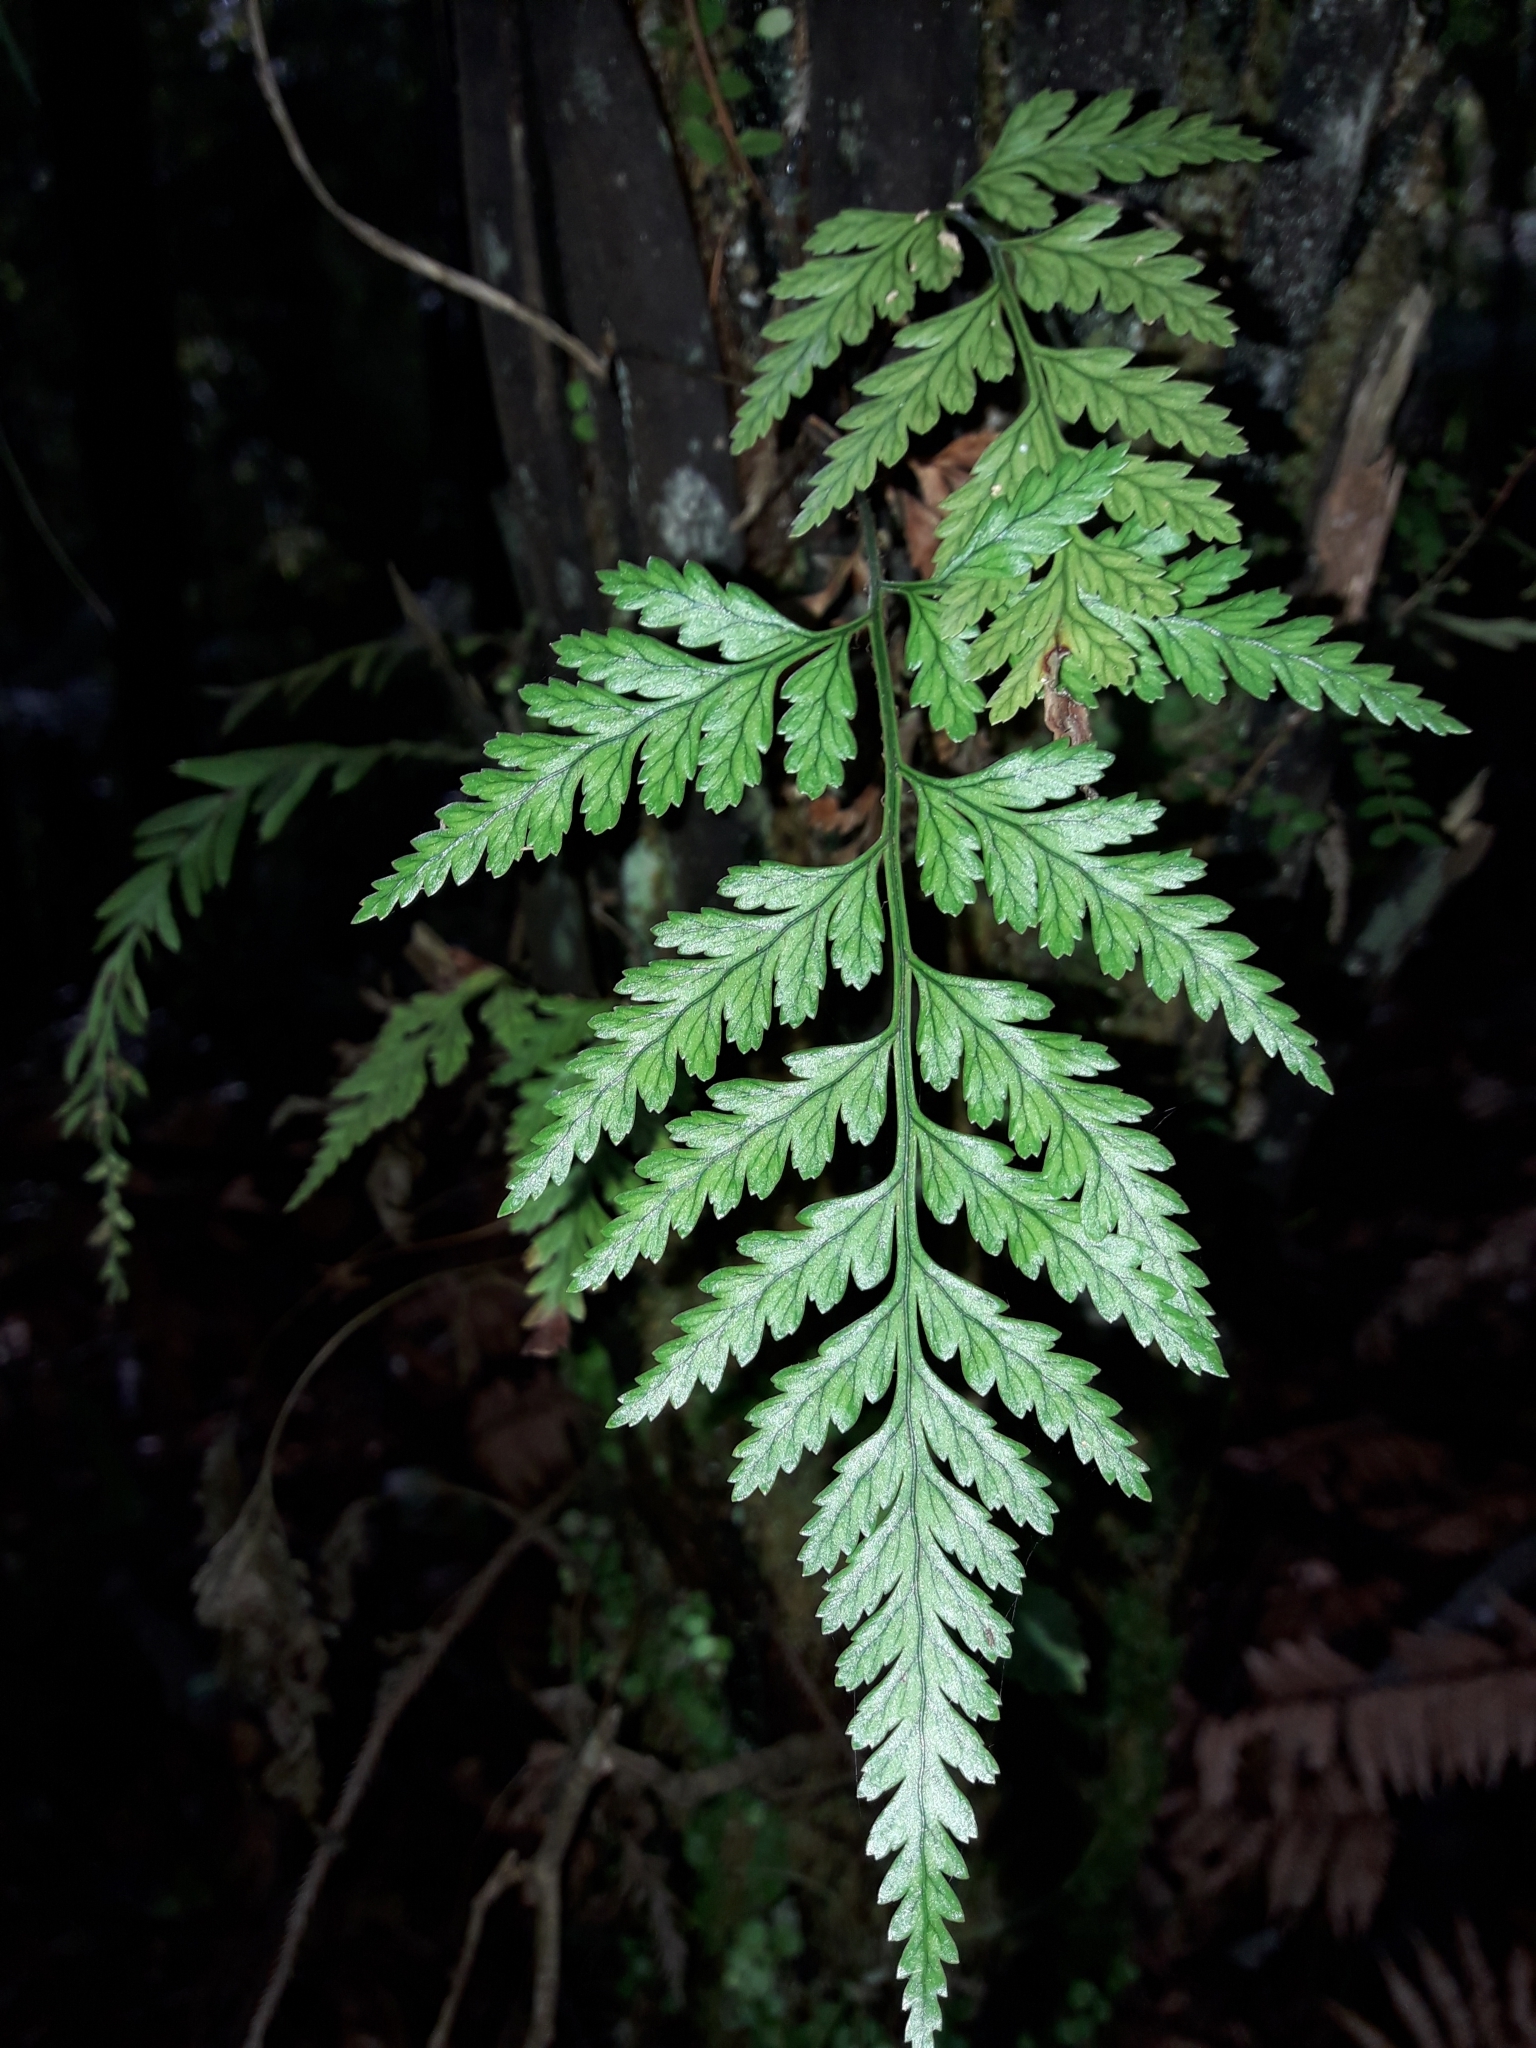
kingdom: Plantae
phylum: Tracheophyta
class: Polypodiopsida
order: Polypodiales
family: Dryopteridaceae
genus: Rumohra
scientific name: Rumohra adiantiformis
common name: Leather fern
